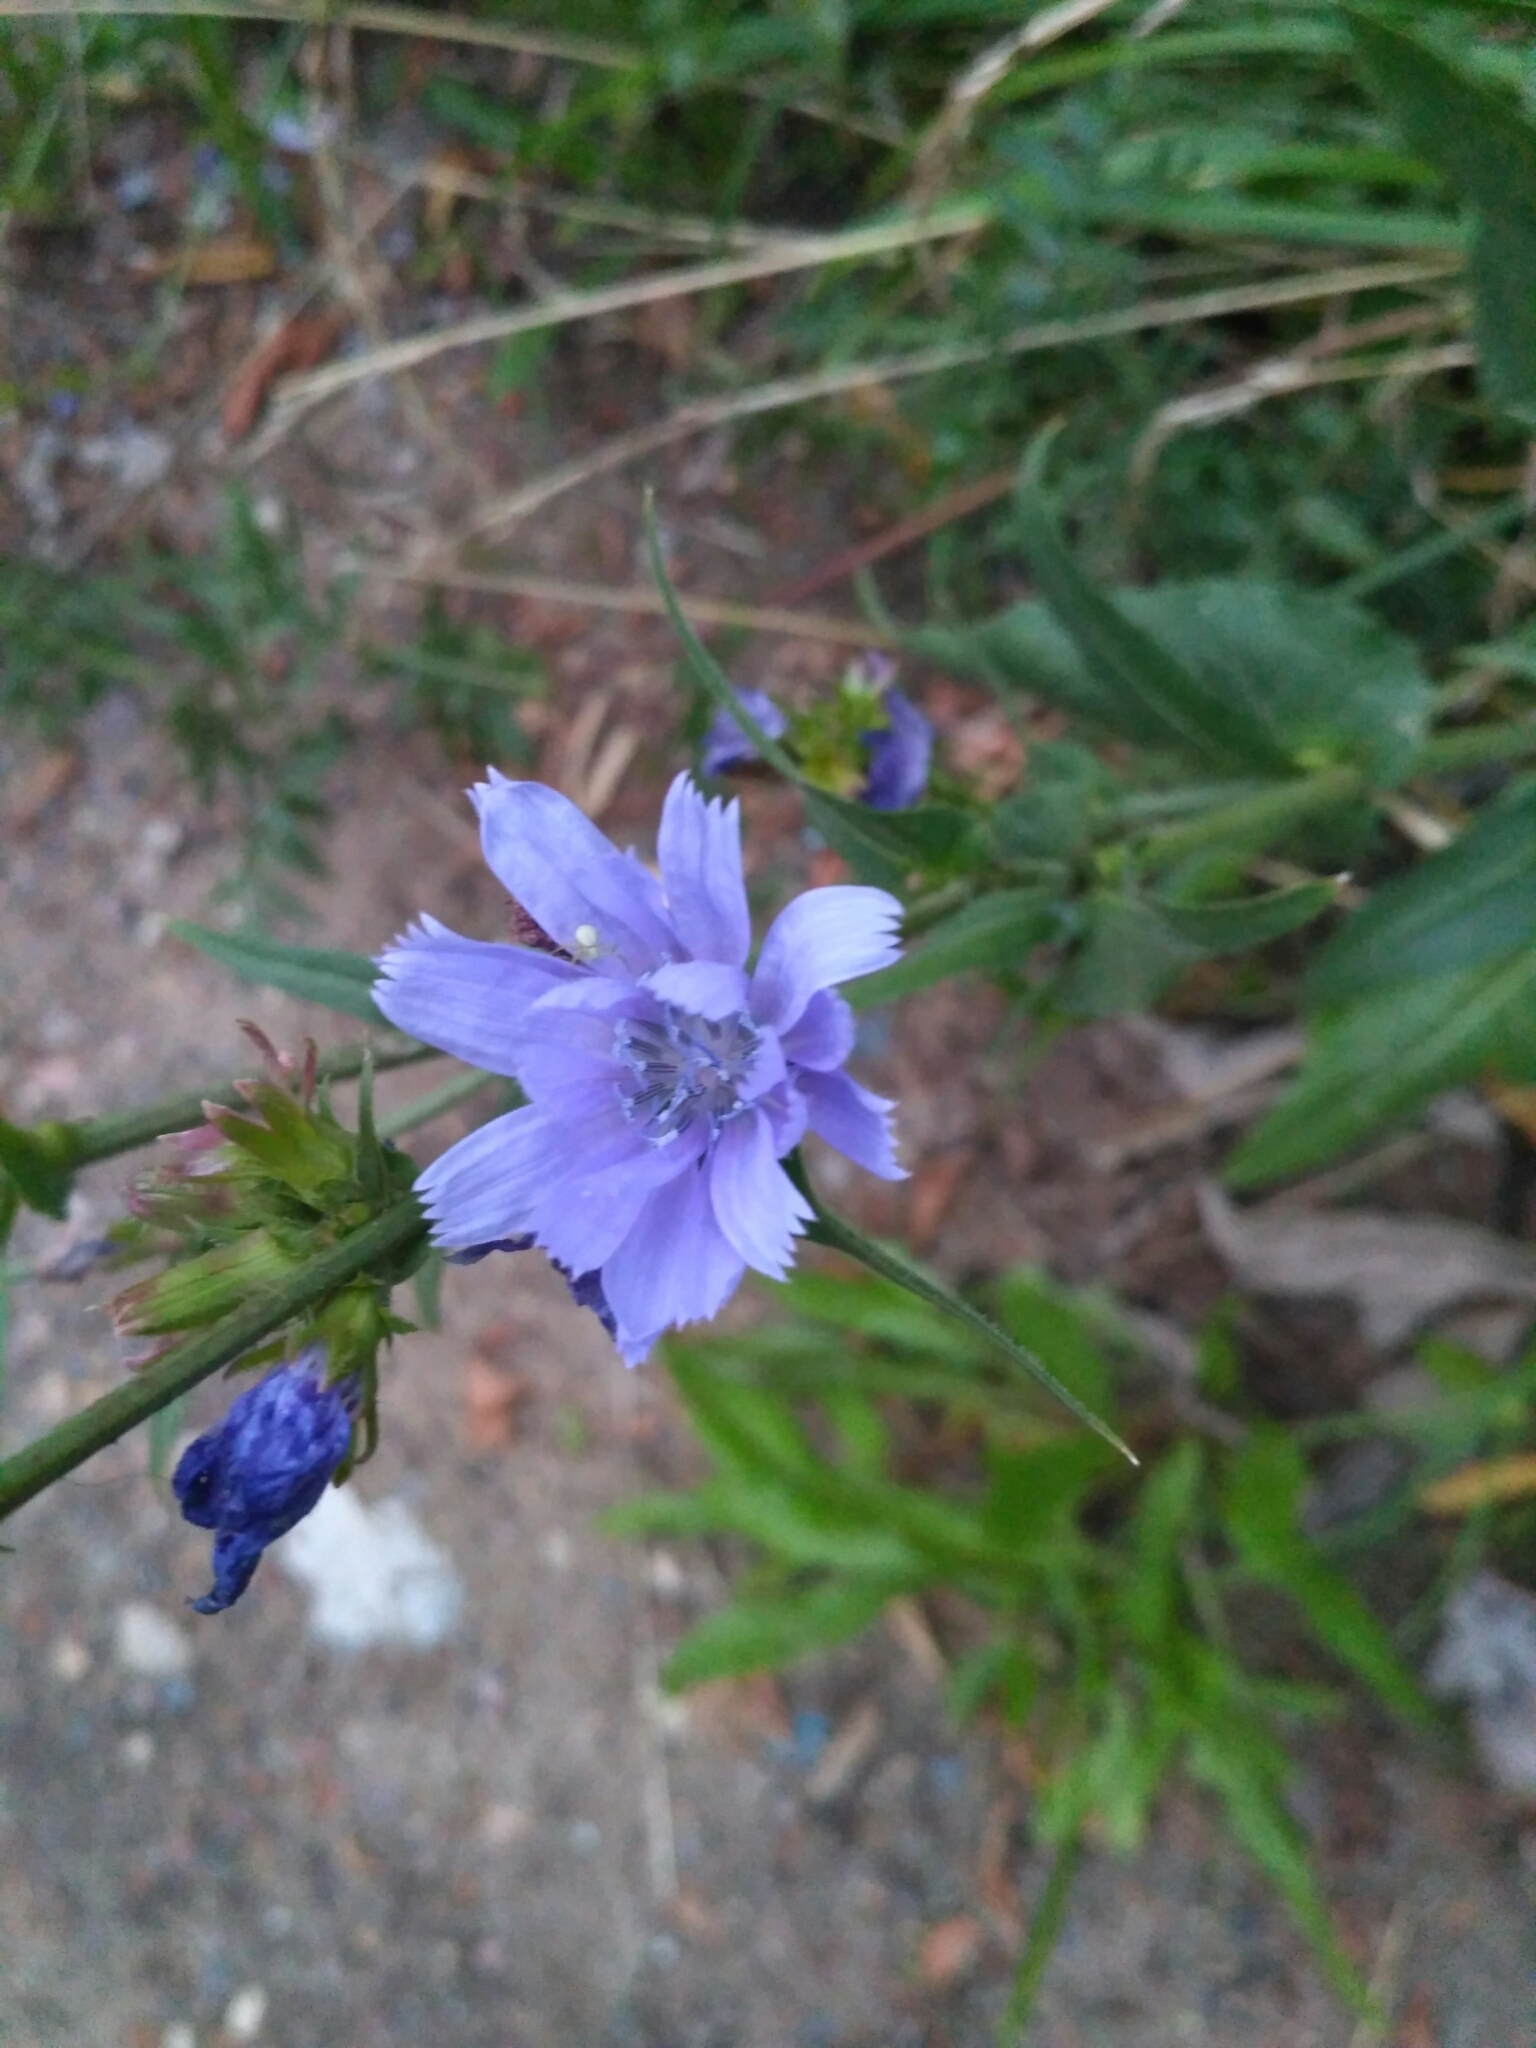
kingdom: Plantae
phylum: Tracheophyta
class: Magnoliopsida
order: Asterales
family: Asteraceae
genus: Cichorium
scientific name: Cichorium intybus
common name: Chicory
